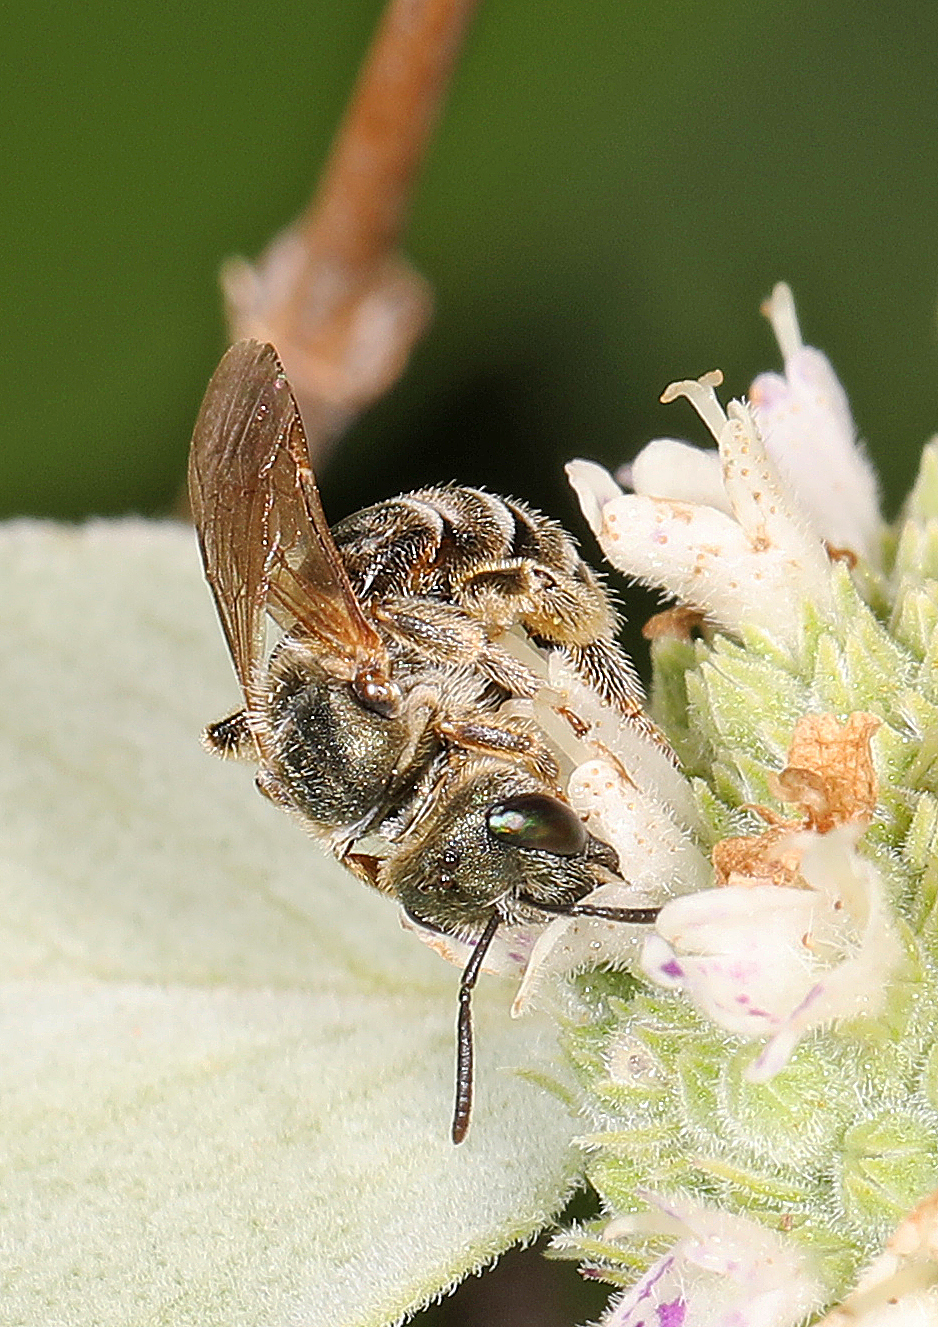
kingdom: Animalia
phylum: Arthropoda
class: Insecta
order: Hymenoptera
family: Halictidae
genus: Halictus
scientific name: Halictus confusus
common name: Southern bronze furrow bee
